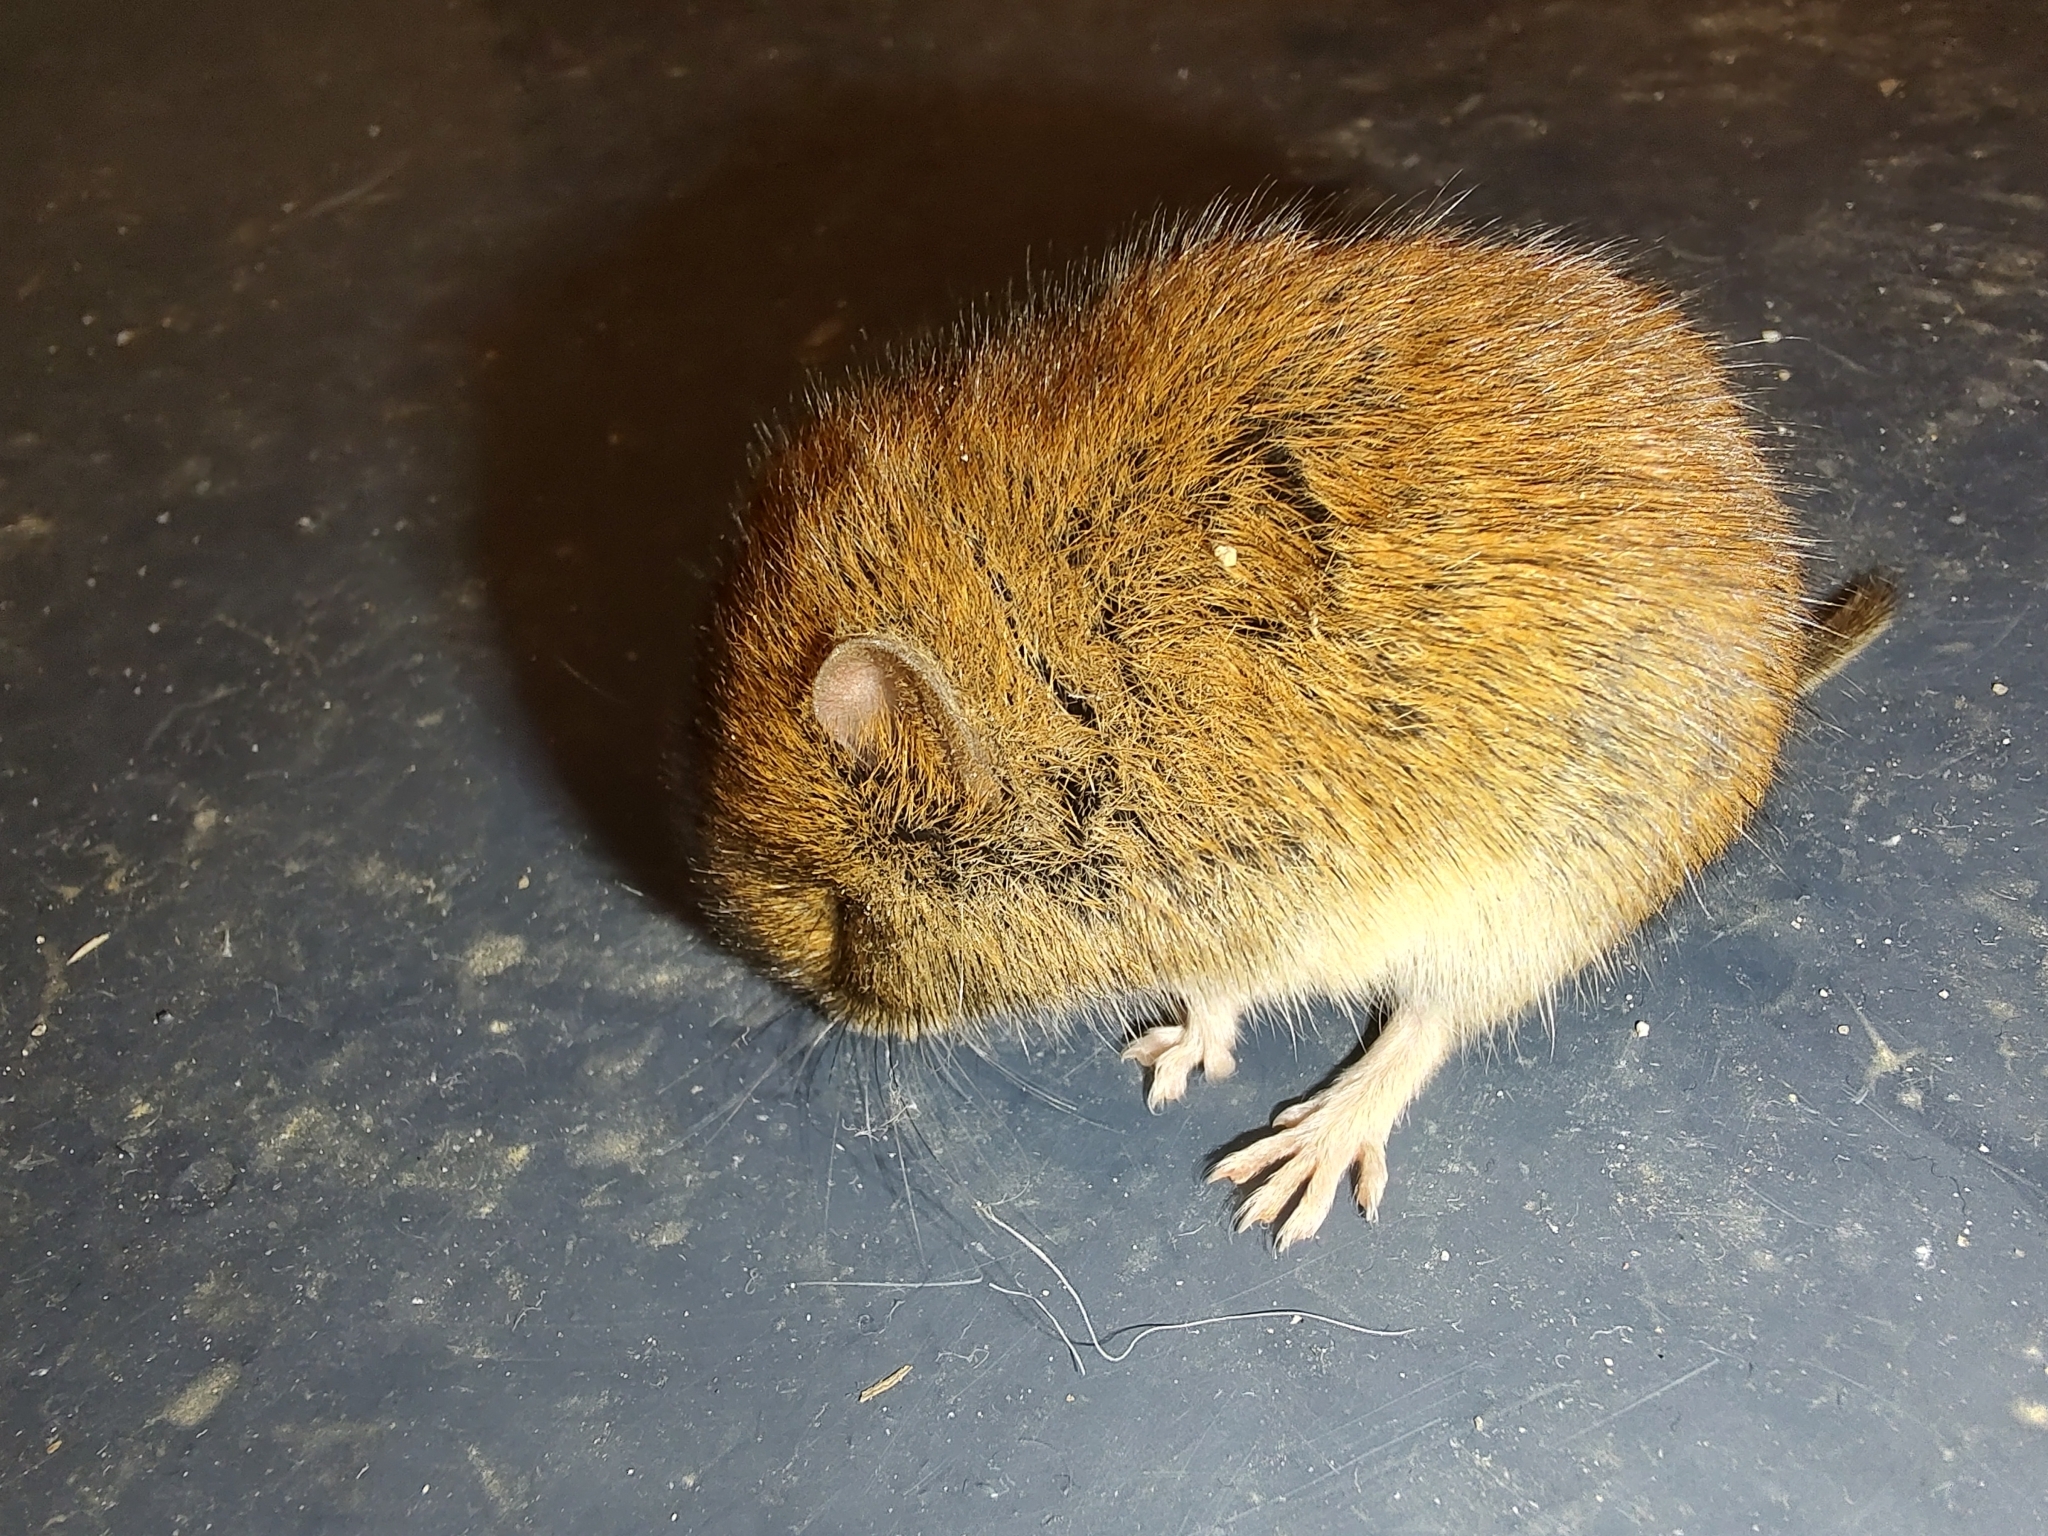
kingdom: Animalia
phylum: Chordata
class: Mammalia
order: Rodentia
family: Cricetidae
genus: Myodes
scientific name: Myodes glareolus
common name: Bank vole
